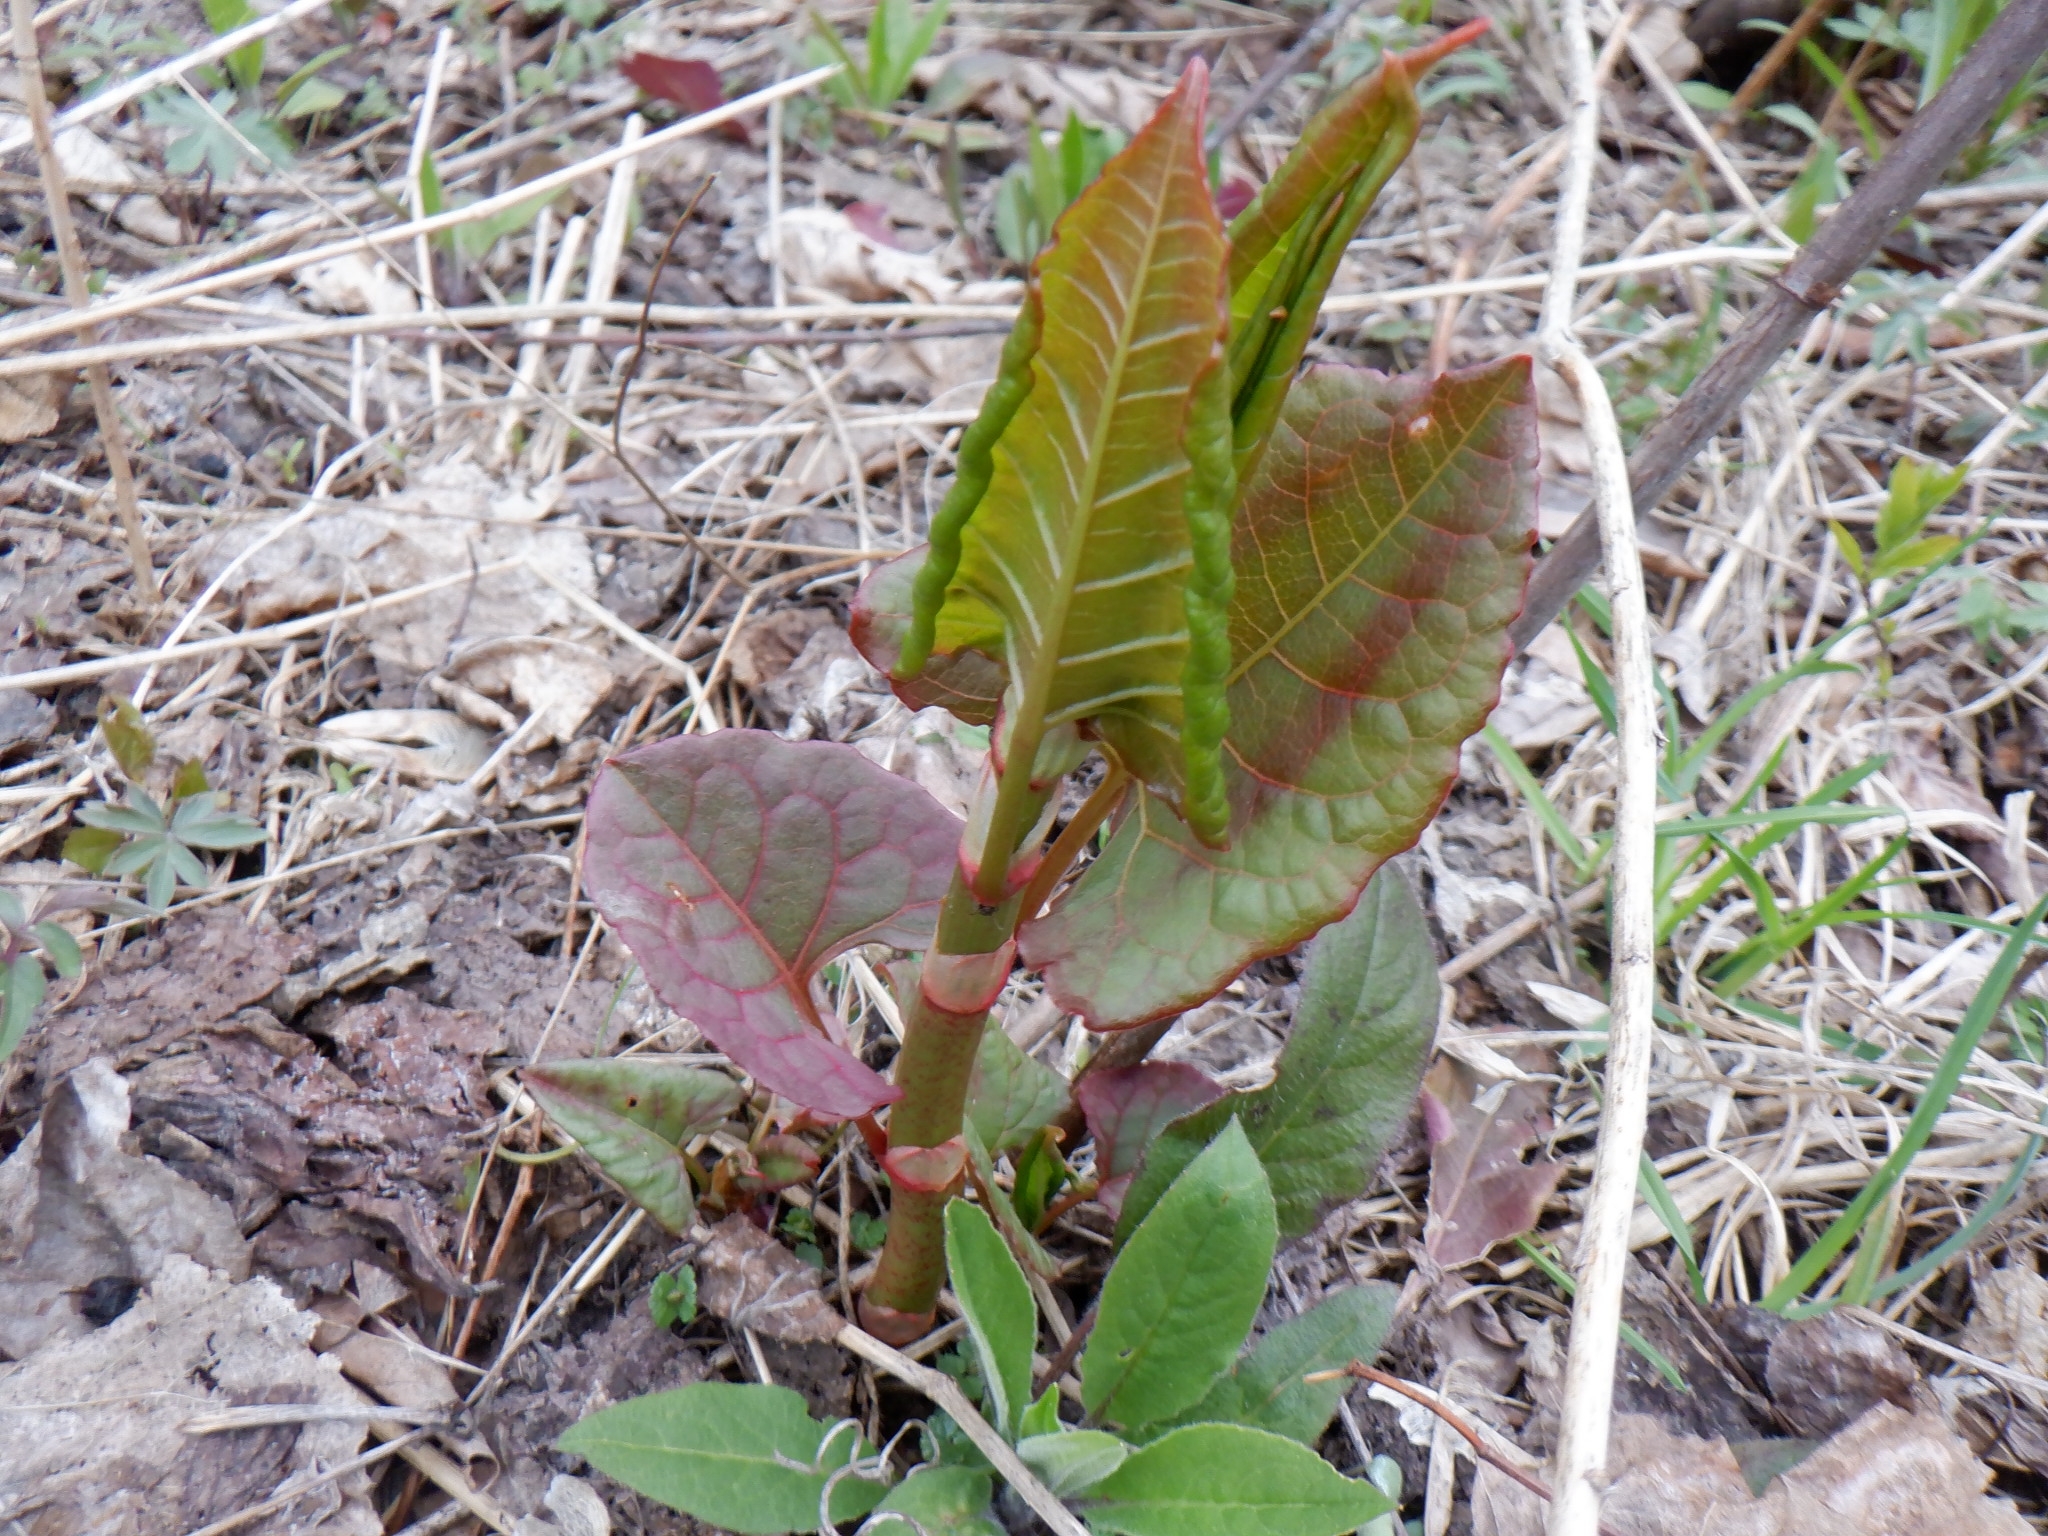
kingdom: Plantae
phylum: Tracheophyta
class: Magnoliopsida
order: Caryophyllales
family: Polygonaceae
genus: Reynoutria
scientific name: Reynoutria japonica
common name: Japanese knotweed
